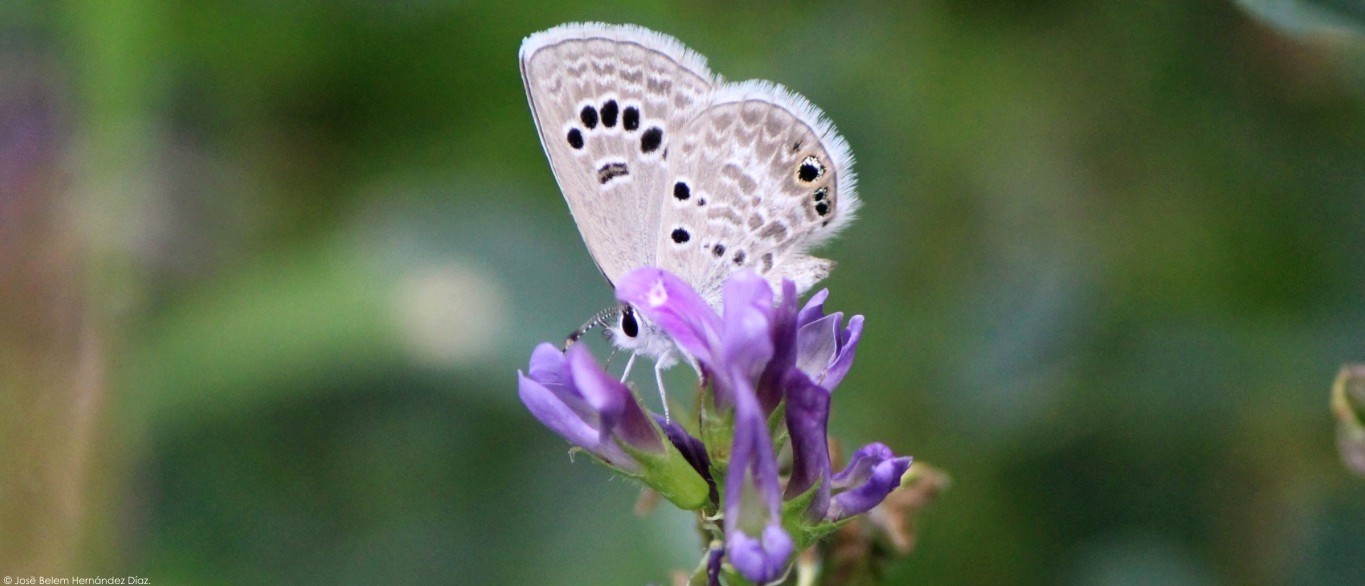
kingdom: Animalia
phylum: Arthropoda
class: Insecta
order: Lepidoptera
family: Lycaenidae
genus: Echinargus
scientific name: Echinargus isola
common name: Reakirt's blue
